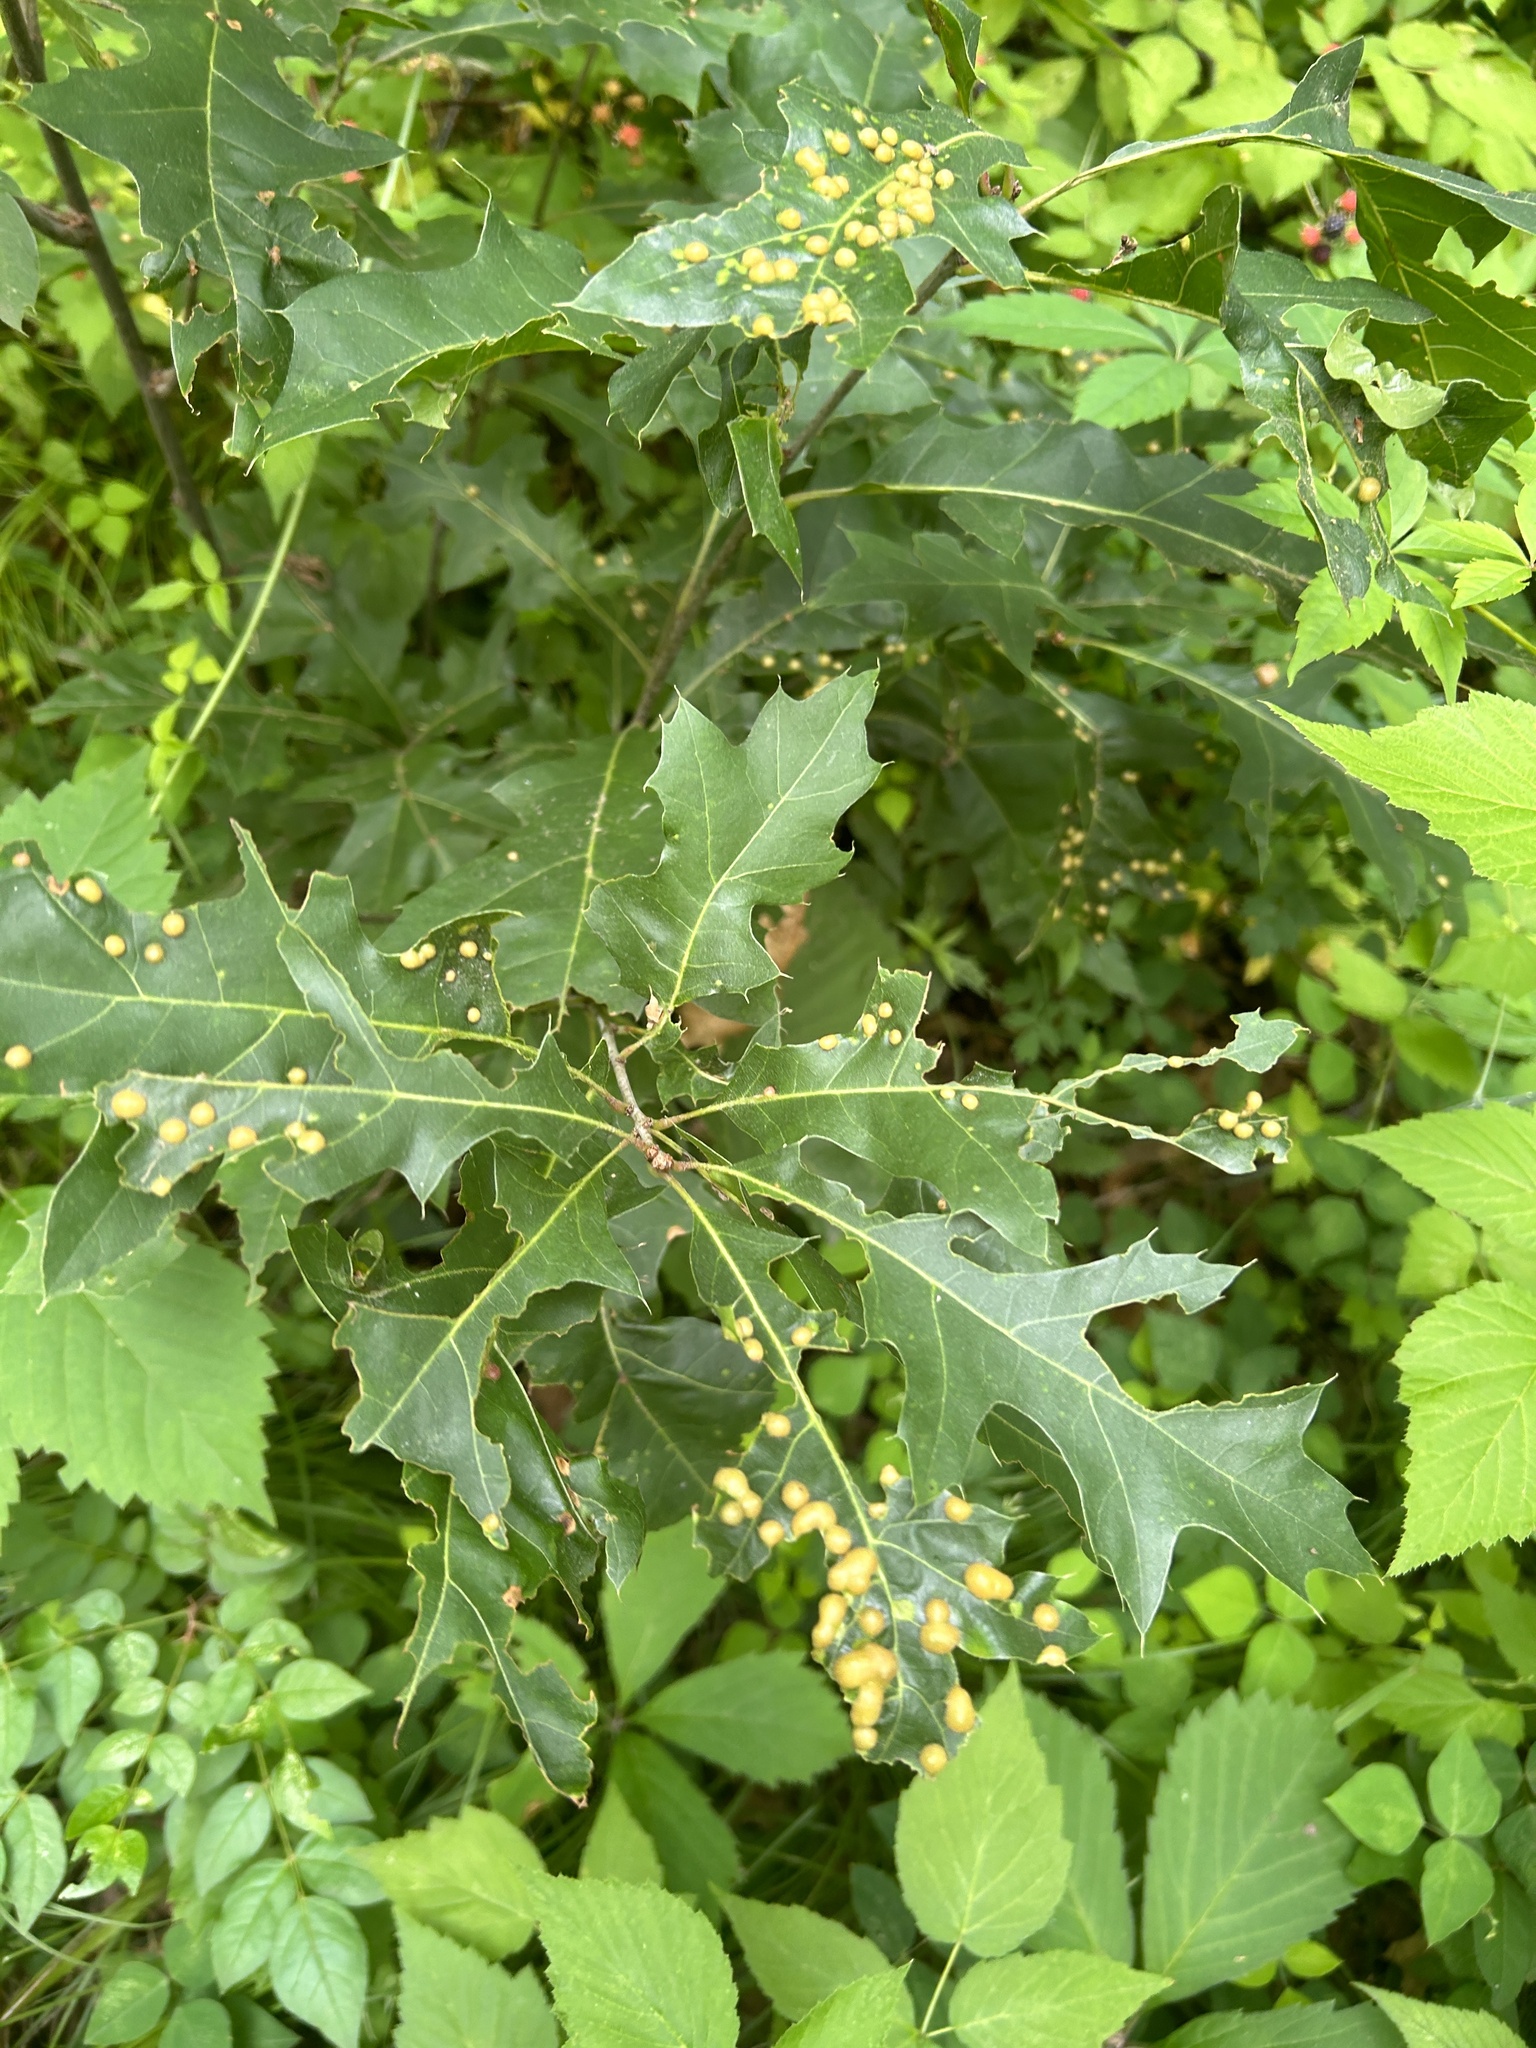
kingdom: Animalia
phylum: Arthropoda
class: Insecta
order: Diptera
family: Cecidomyiidae
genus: Polystepha
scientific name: Polystepha pilulae
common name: Oak leaf gall midge
